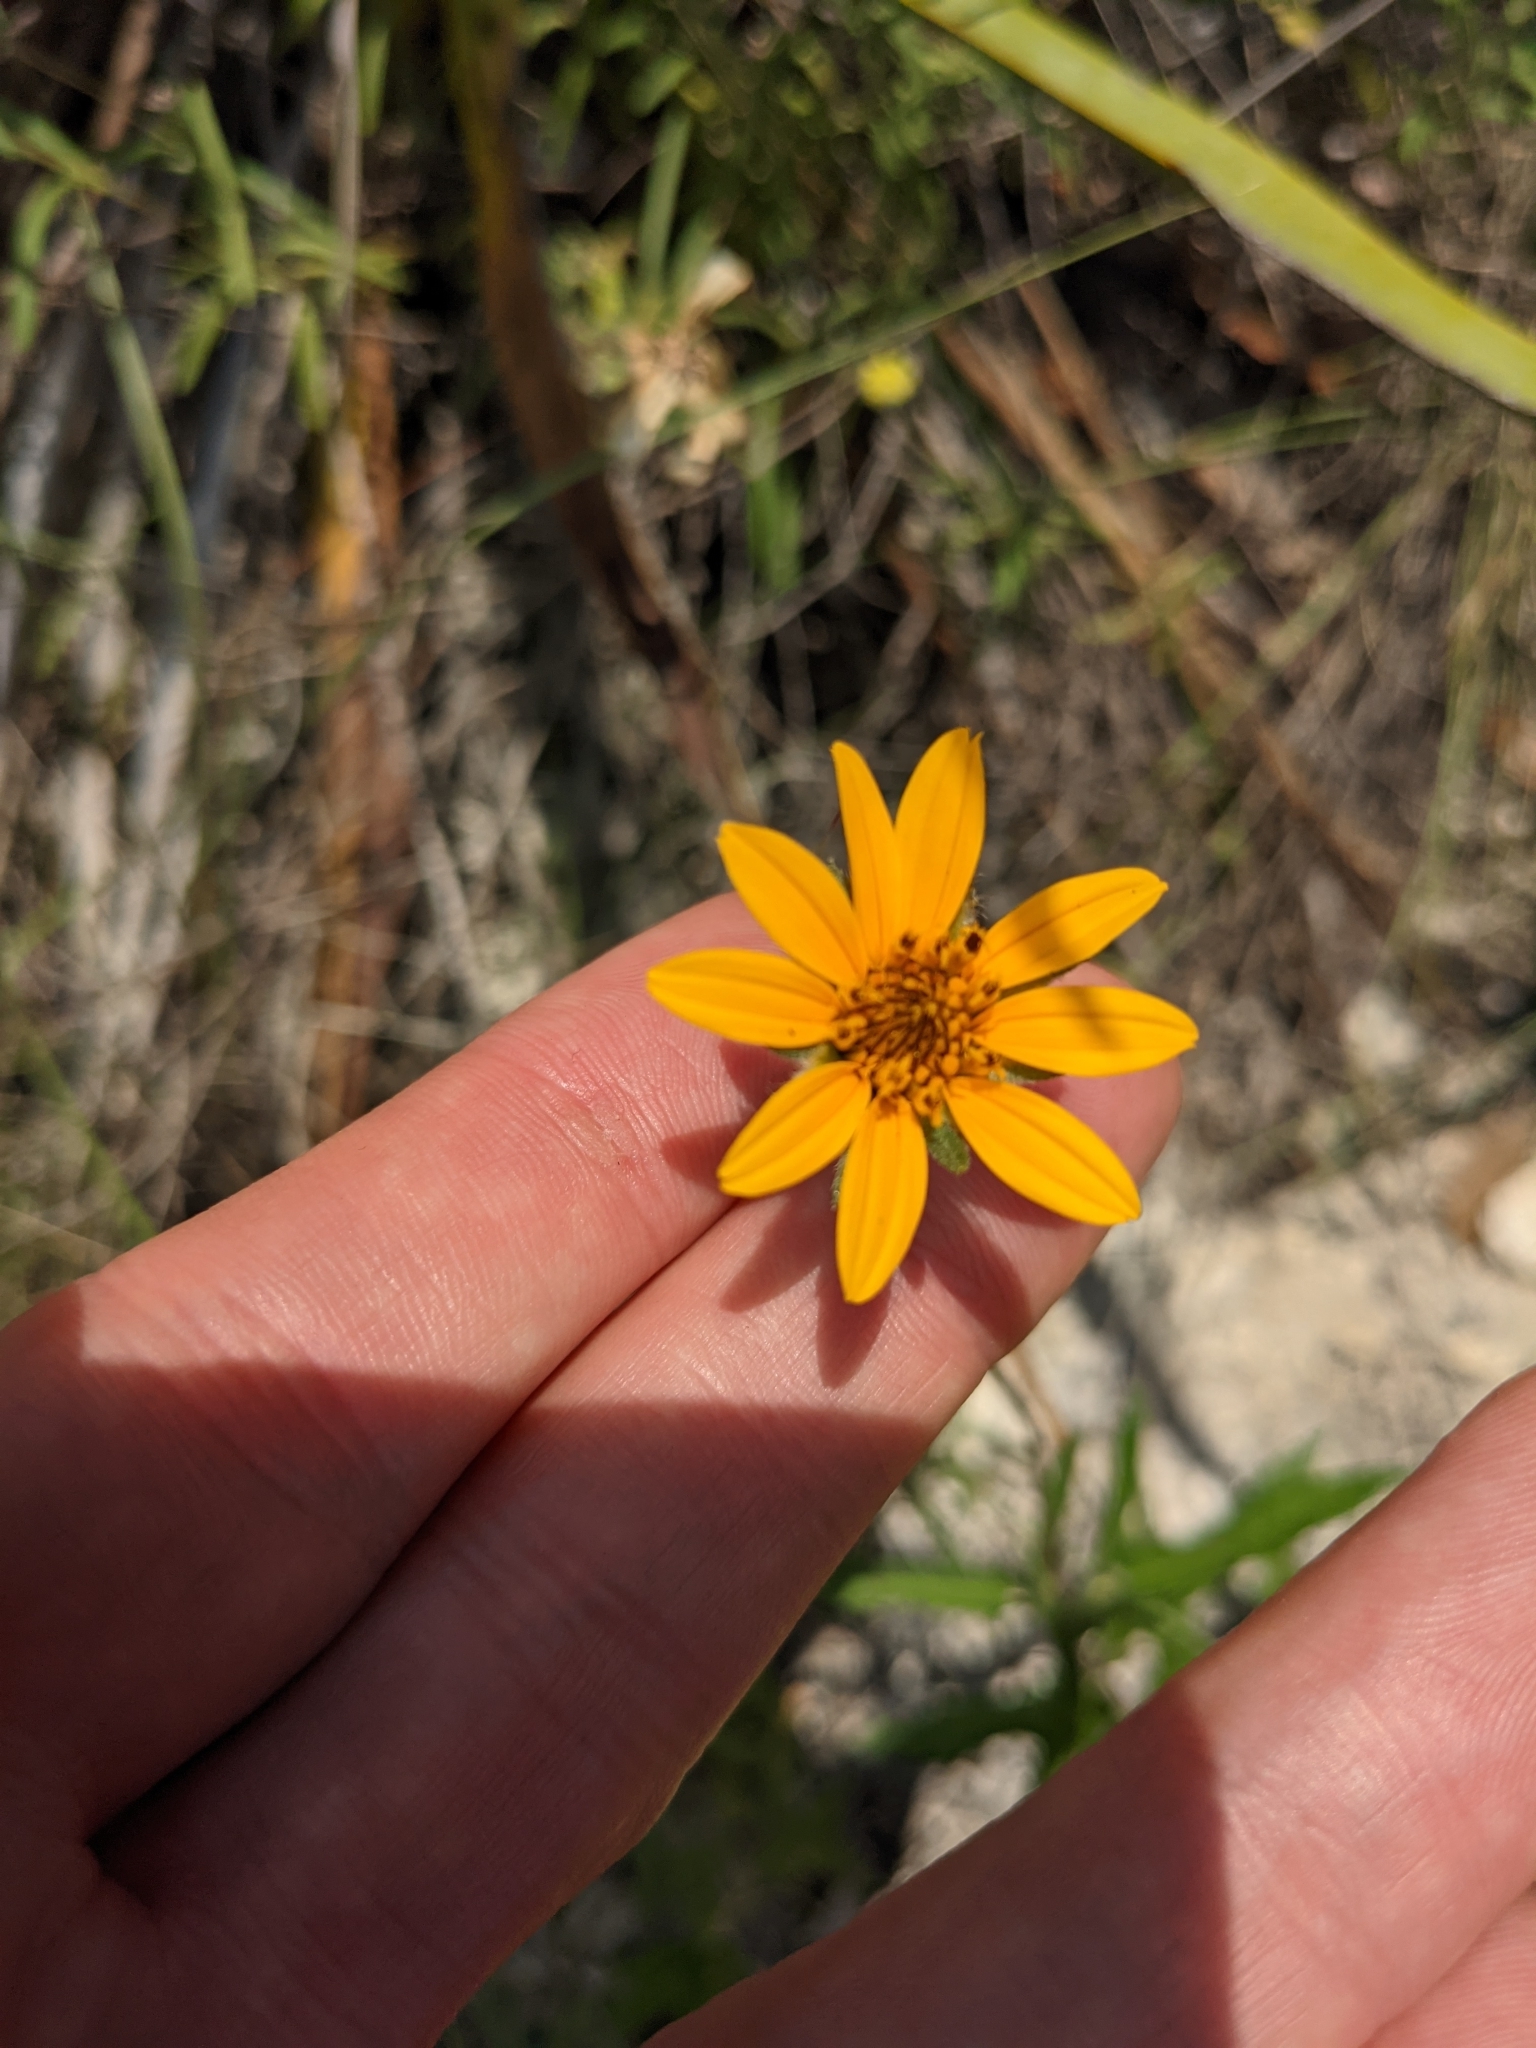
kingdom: Plantae
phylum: Tracheophyta
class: Magnoliopsida
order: Asterales
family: Asteraceae
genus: Wedelia
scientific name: Wedelia acapulcensis
